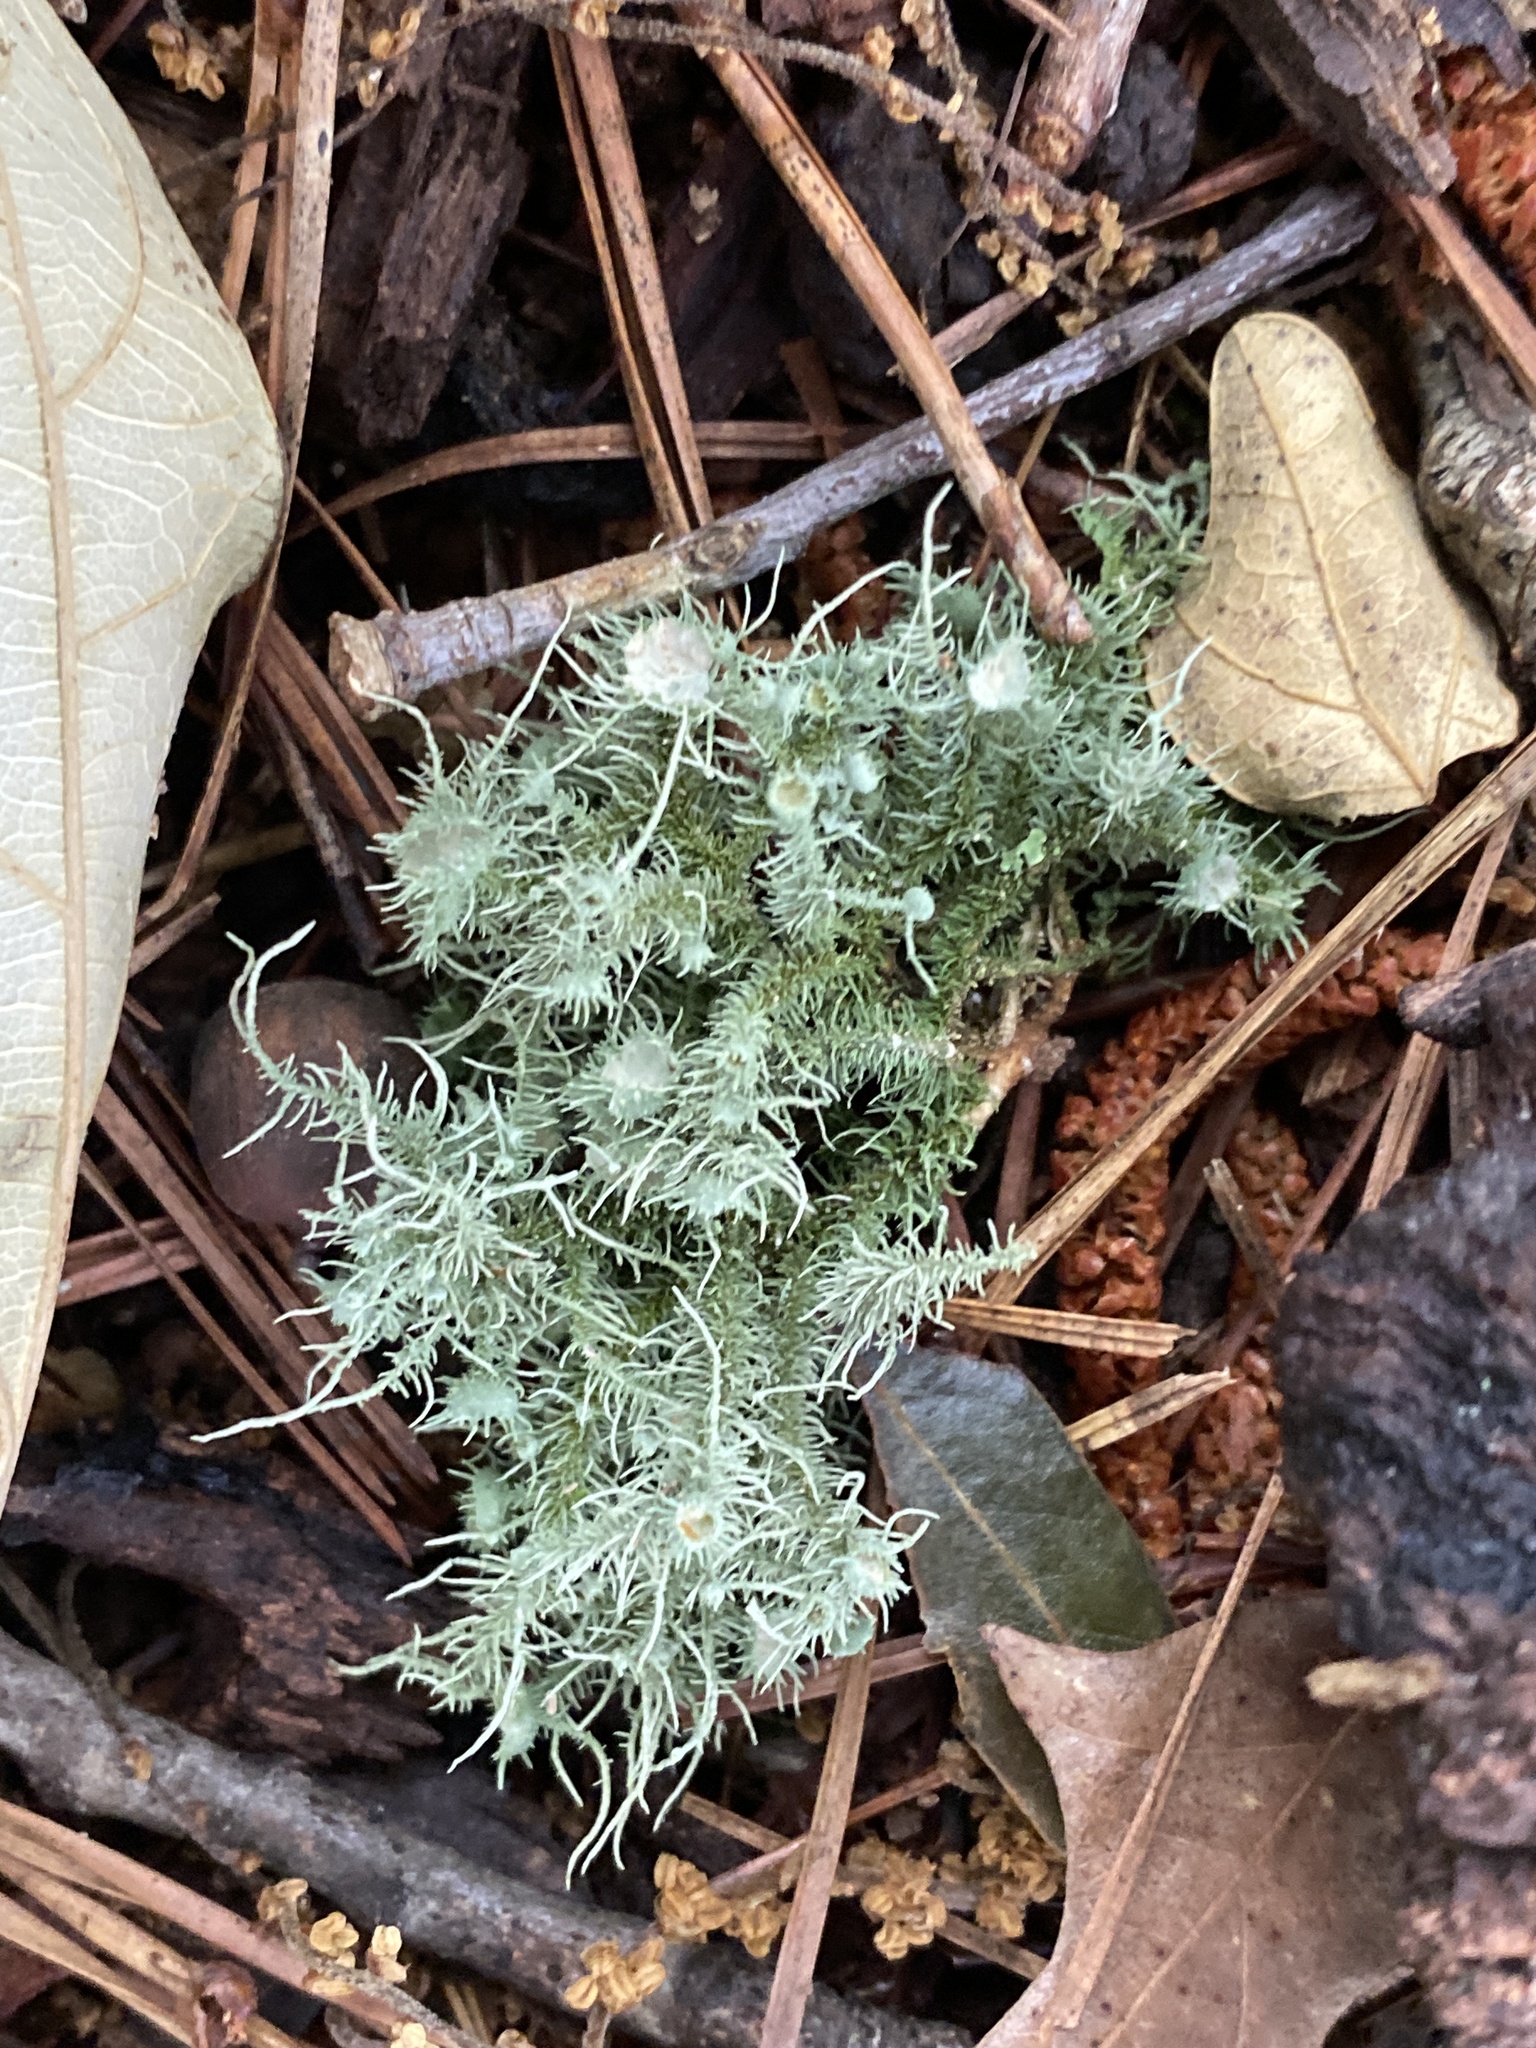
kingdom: Fungi
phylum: Ascomycota
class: Lecanoromycetes
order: Lecanorales
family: Parmeliaceae
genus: Usnea
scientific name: Usnea strigosa
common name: Bushy beard lichen
